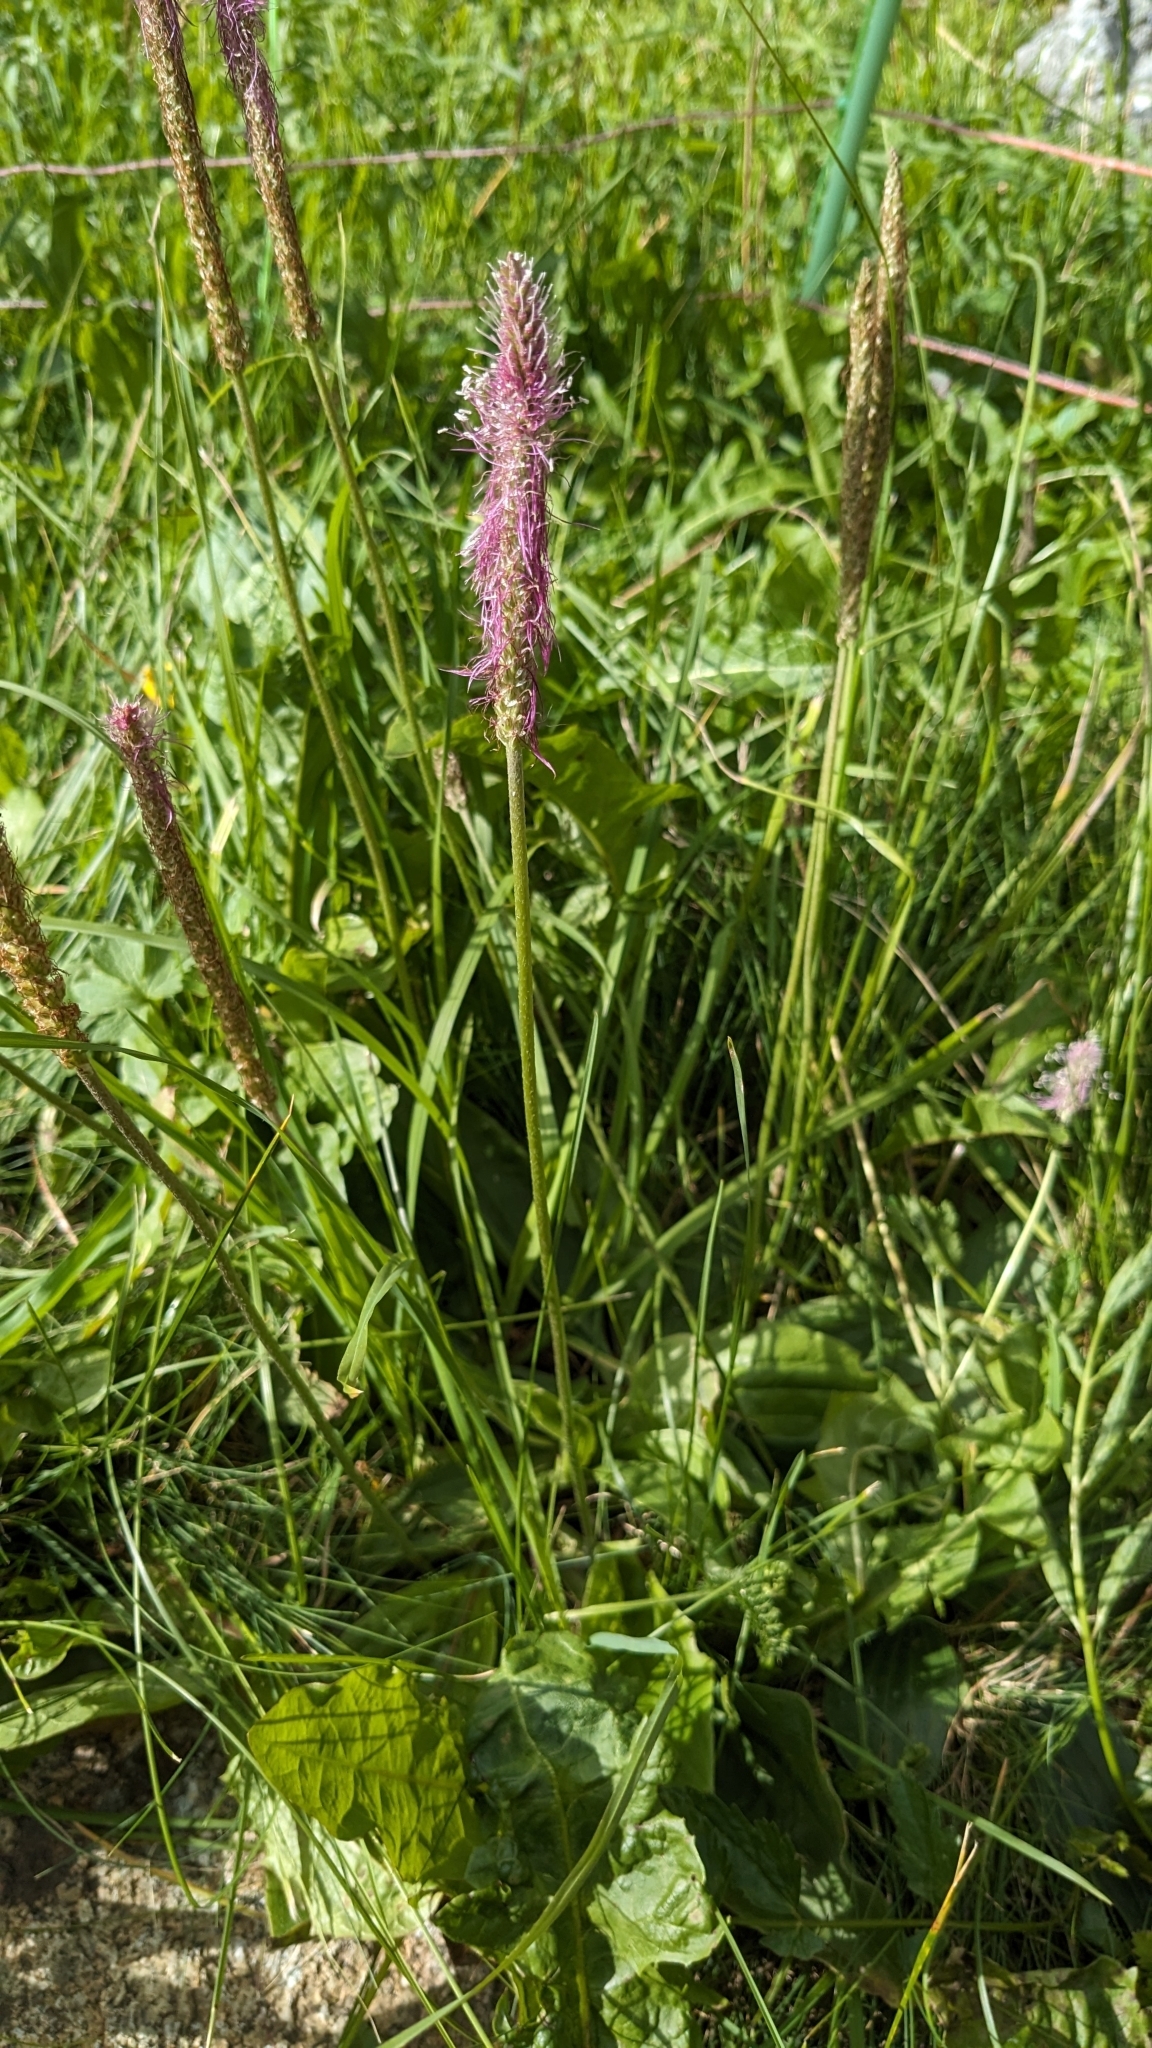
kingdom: Plantae
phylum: Tracheophyta
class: Magnoliopsida
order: Lamiales
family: Plantaginaceae
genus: Plantago
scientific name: Plantago media
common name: Hoary plantain
